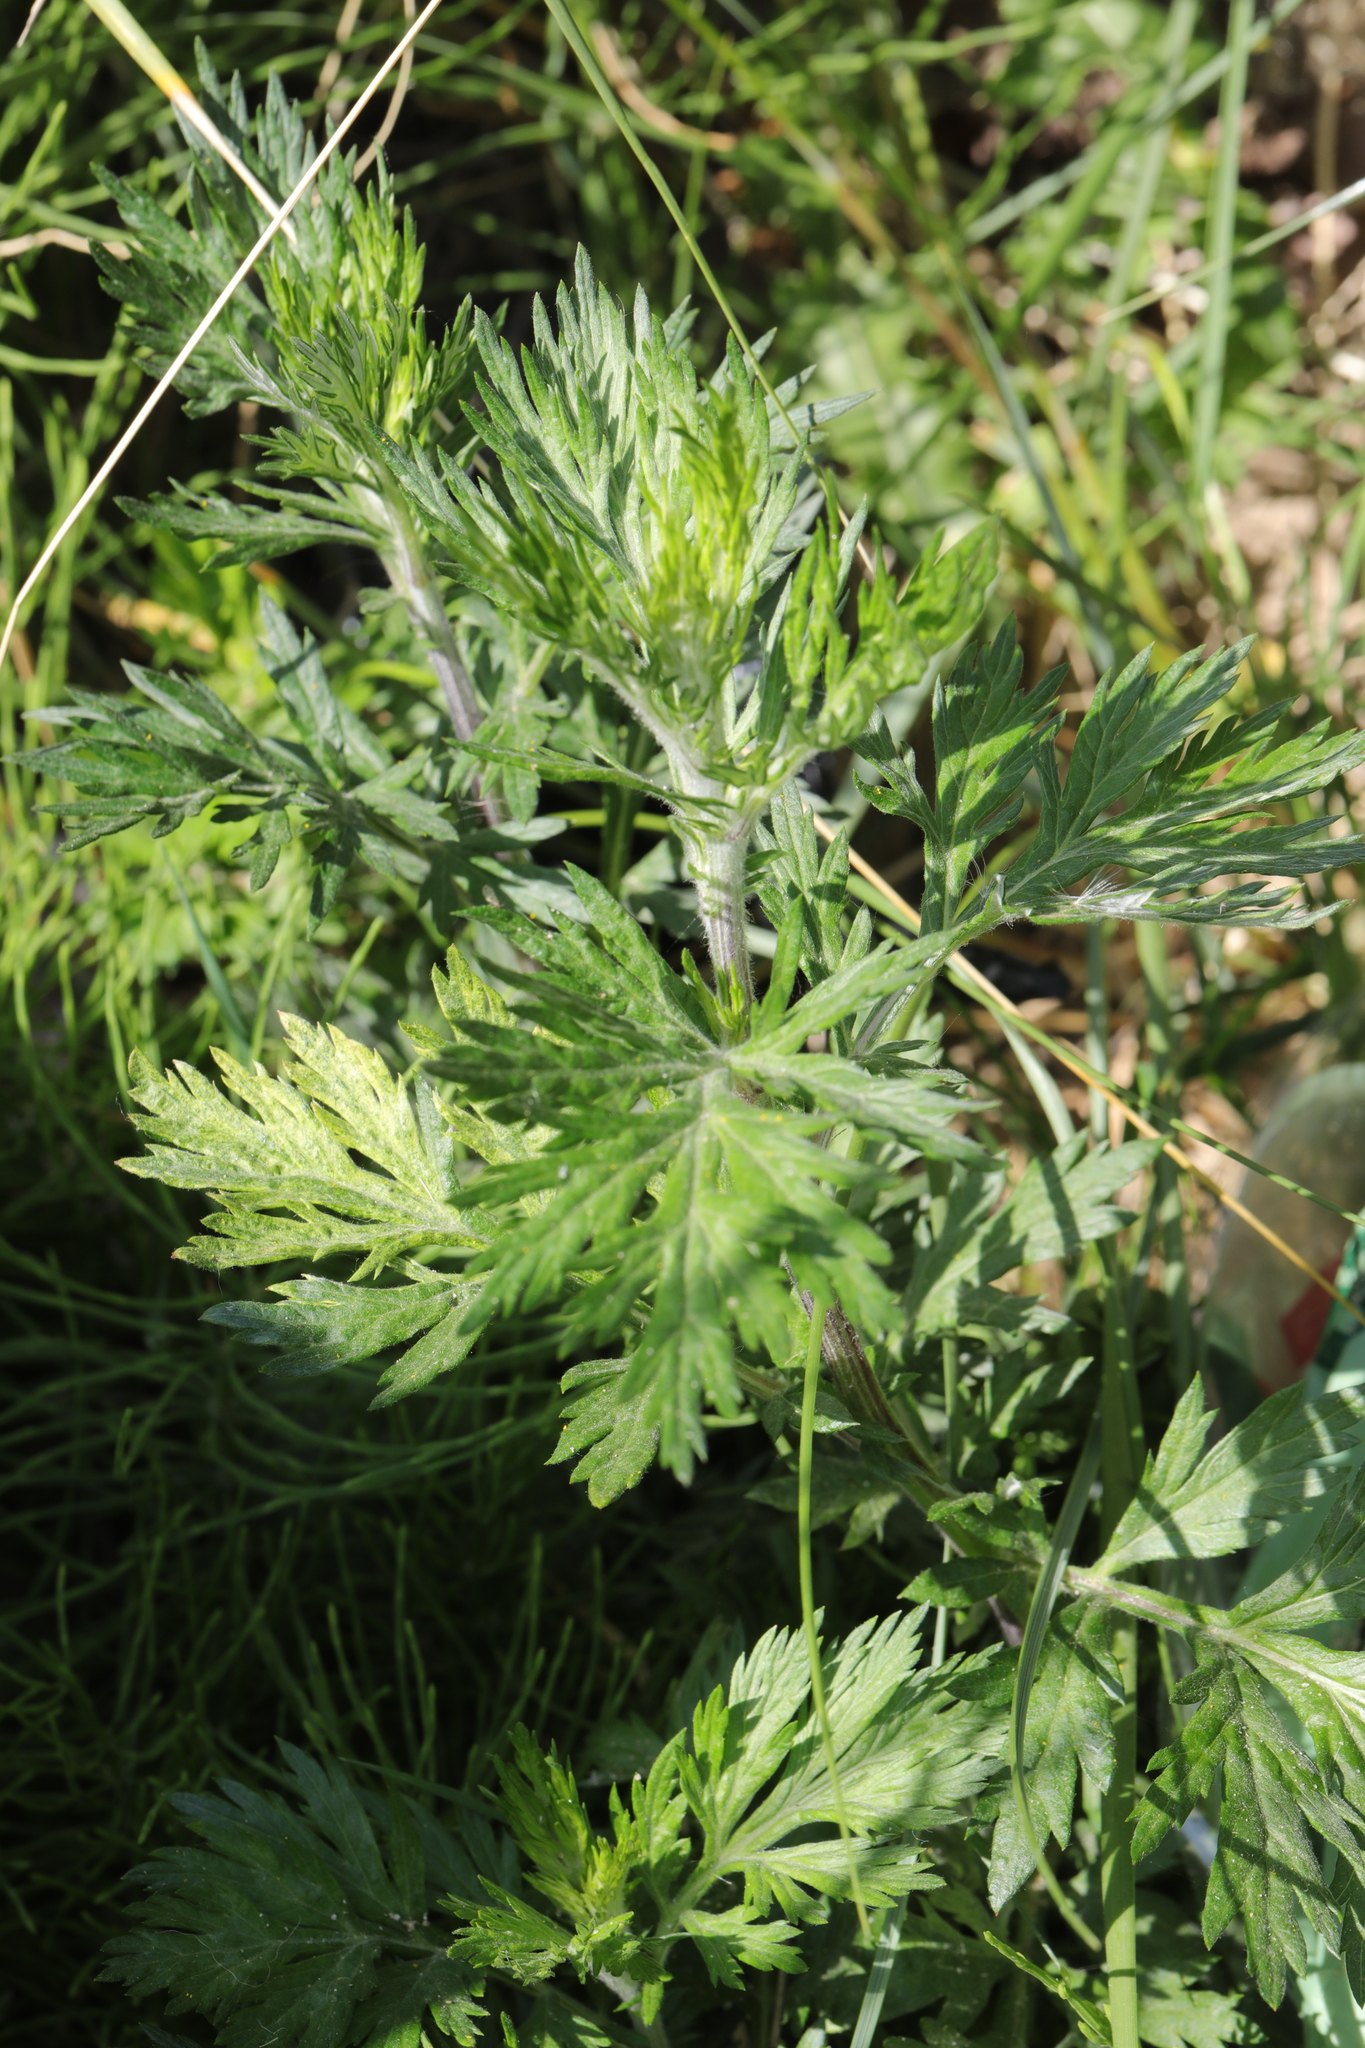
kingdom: Plantae
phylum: Tracheophyta
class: Magnoliopsida
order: Asterales
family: Asteraceae
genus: Artemisia
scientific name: Artemisia vulgaris
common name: Mugwort
